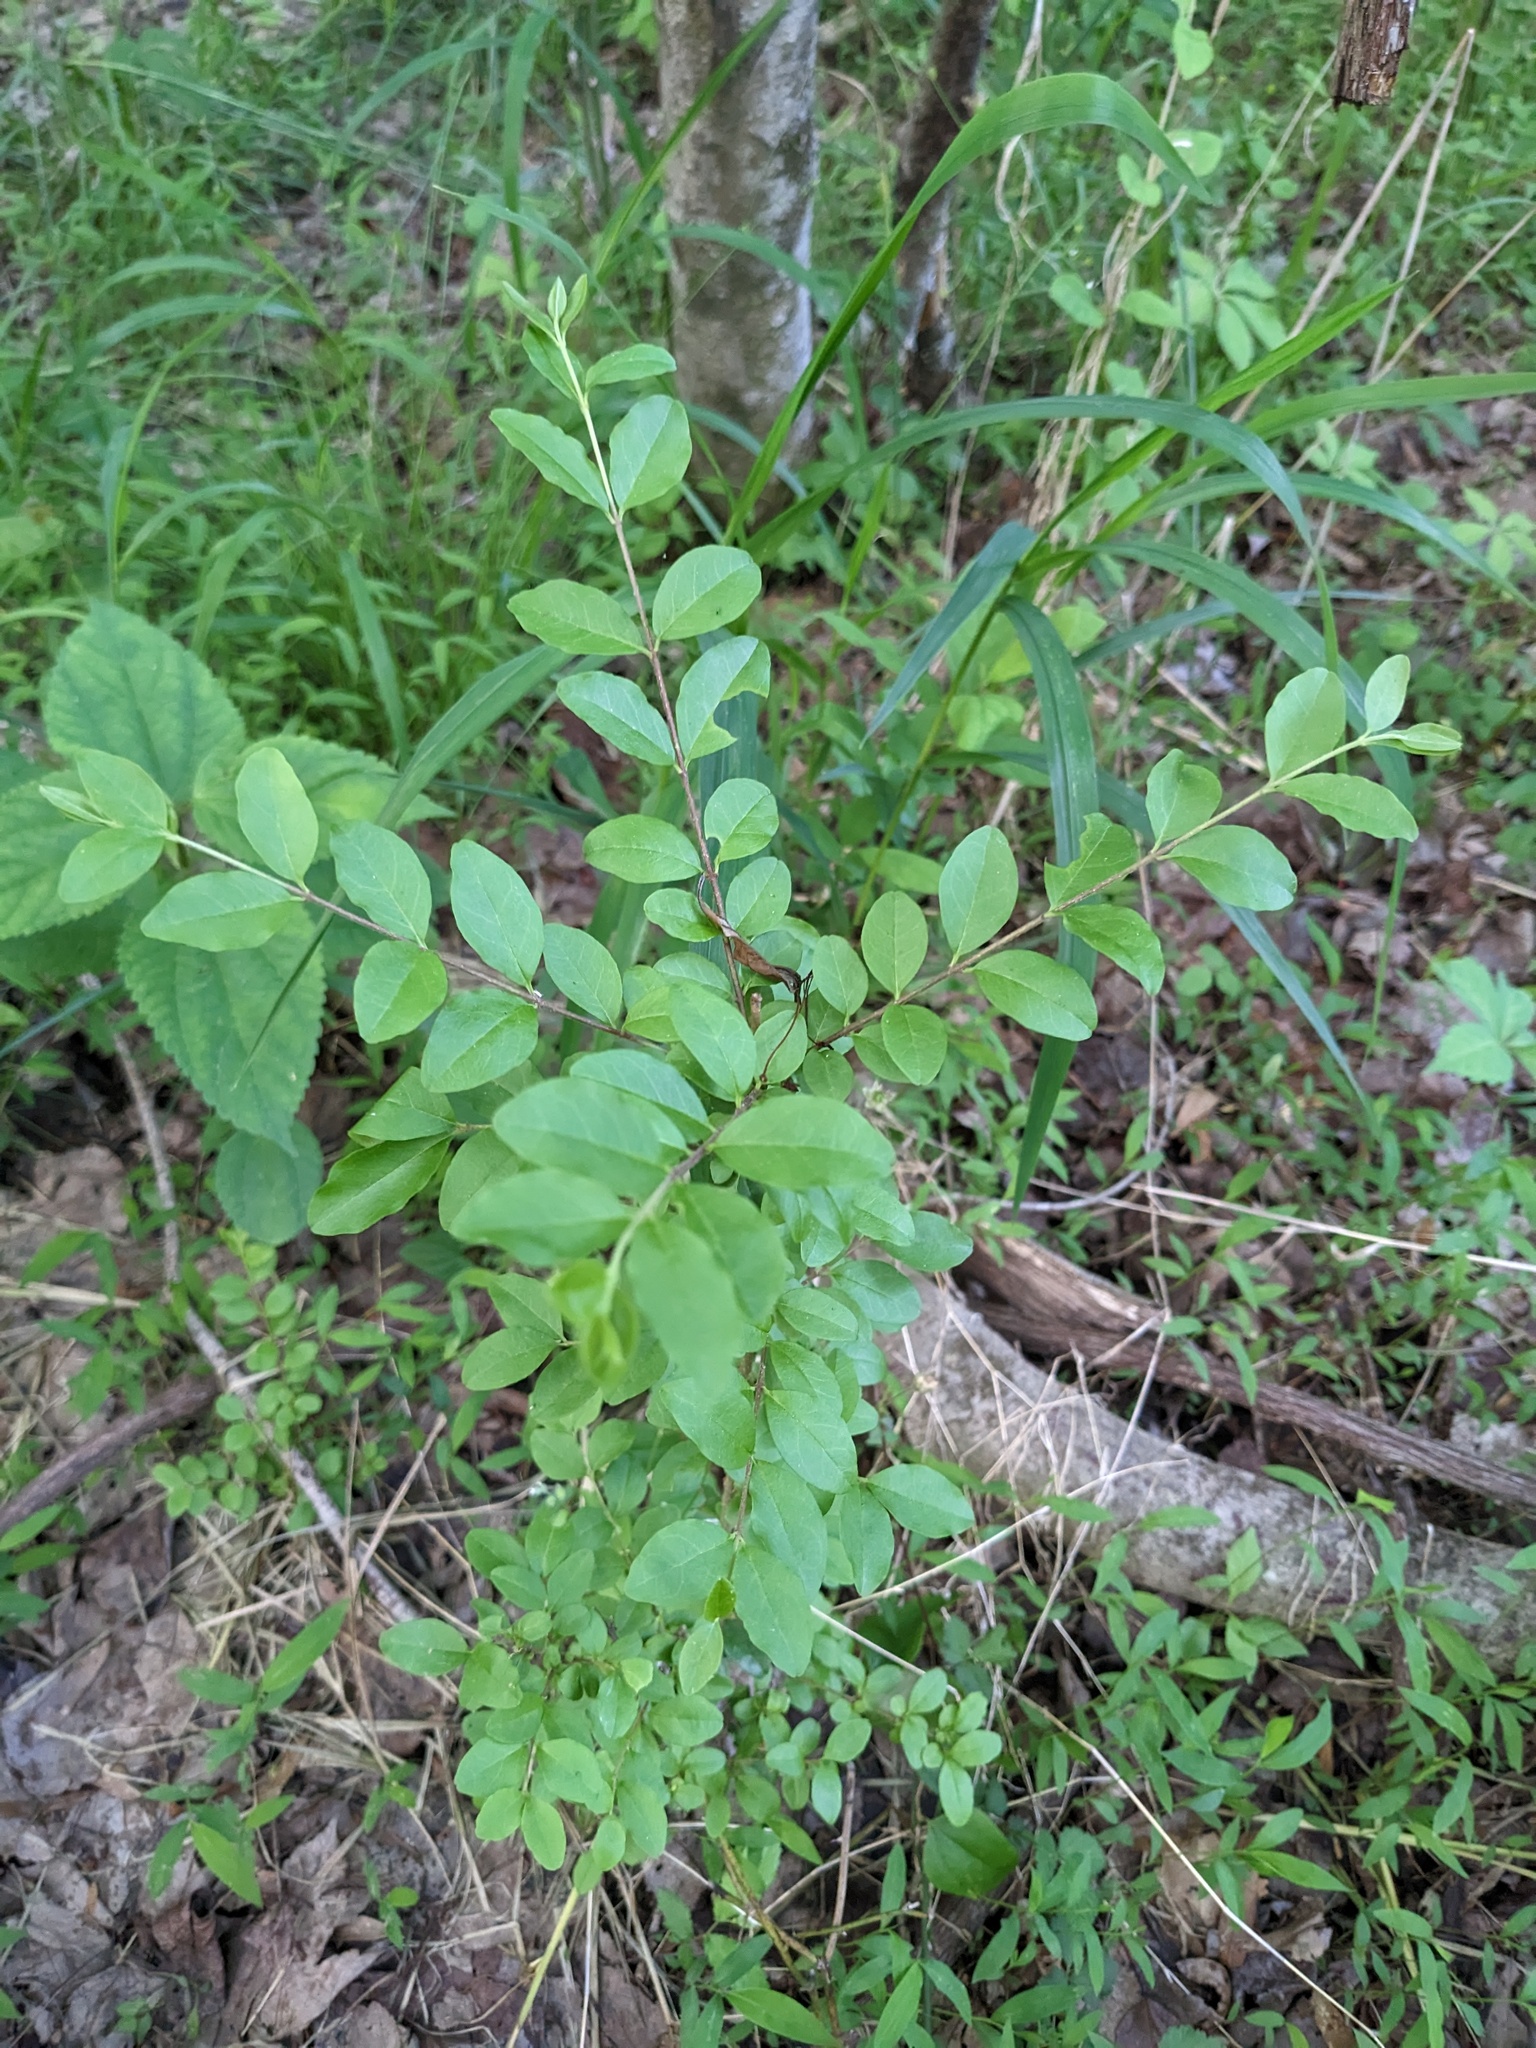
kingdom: Plantae
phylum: Tracheophyta
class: Magnoliopsida
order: Lamiales
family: Oleaceae
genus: Ligustrum
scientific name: Ligustrum sinense
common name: Chinese privet
